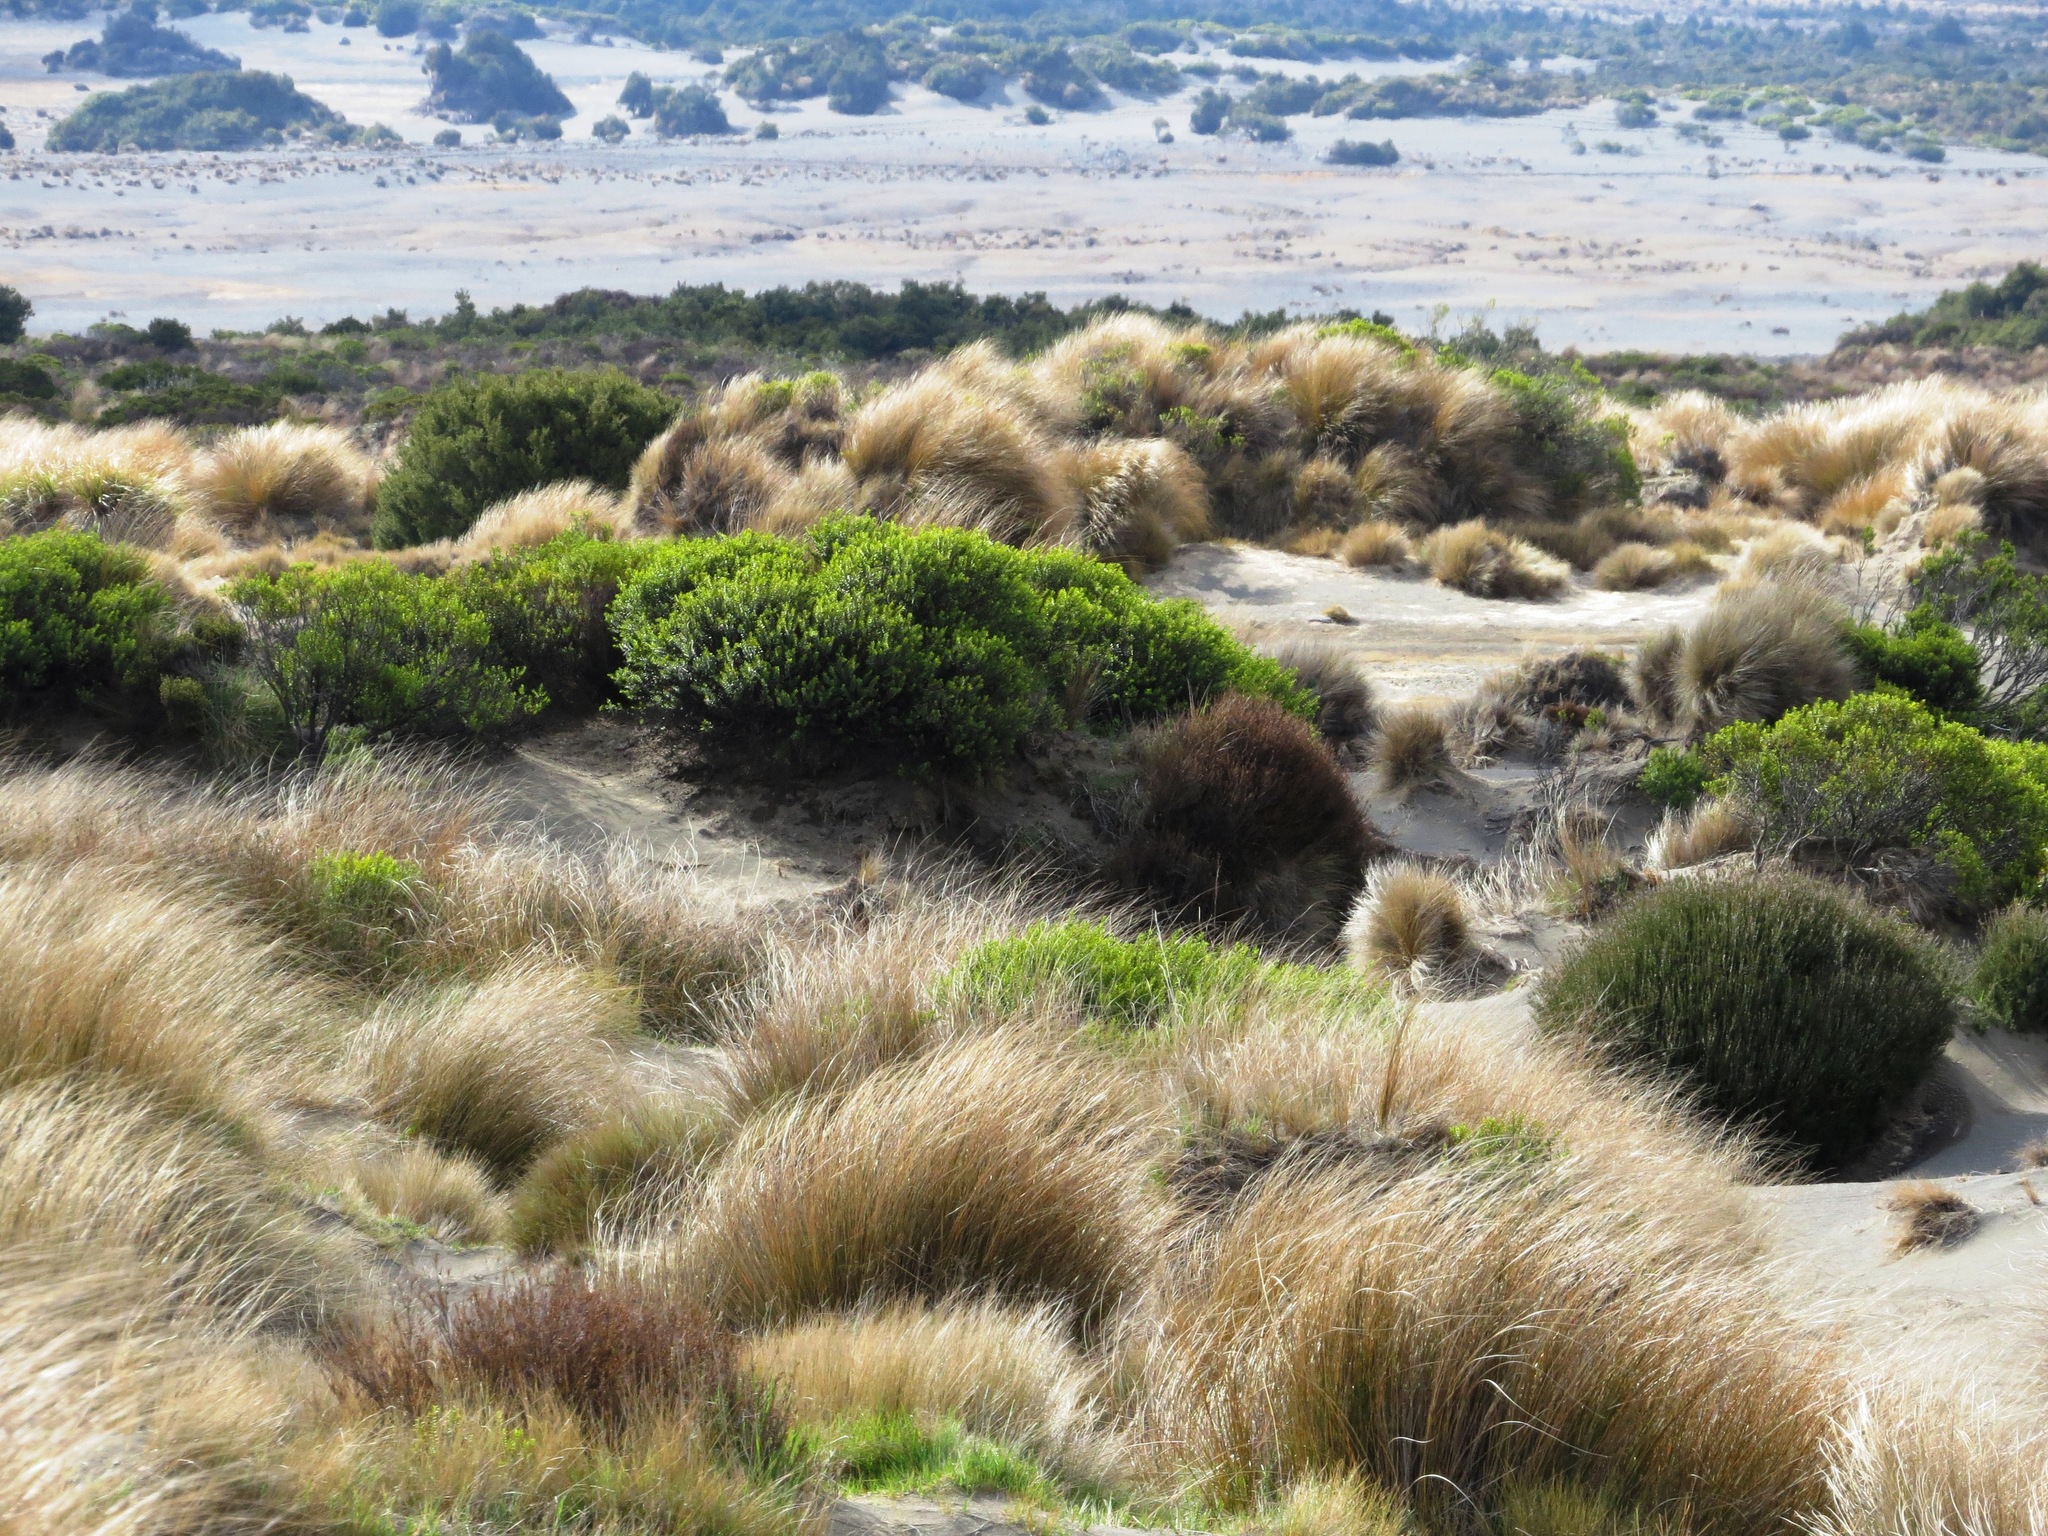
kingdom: Plantae
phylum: Tracheophyta
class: Liliopsida
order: Poales
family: Poaceae
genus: Chionochloa
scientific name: Chionochloa rubra
